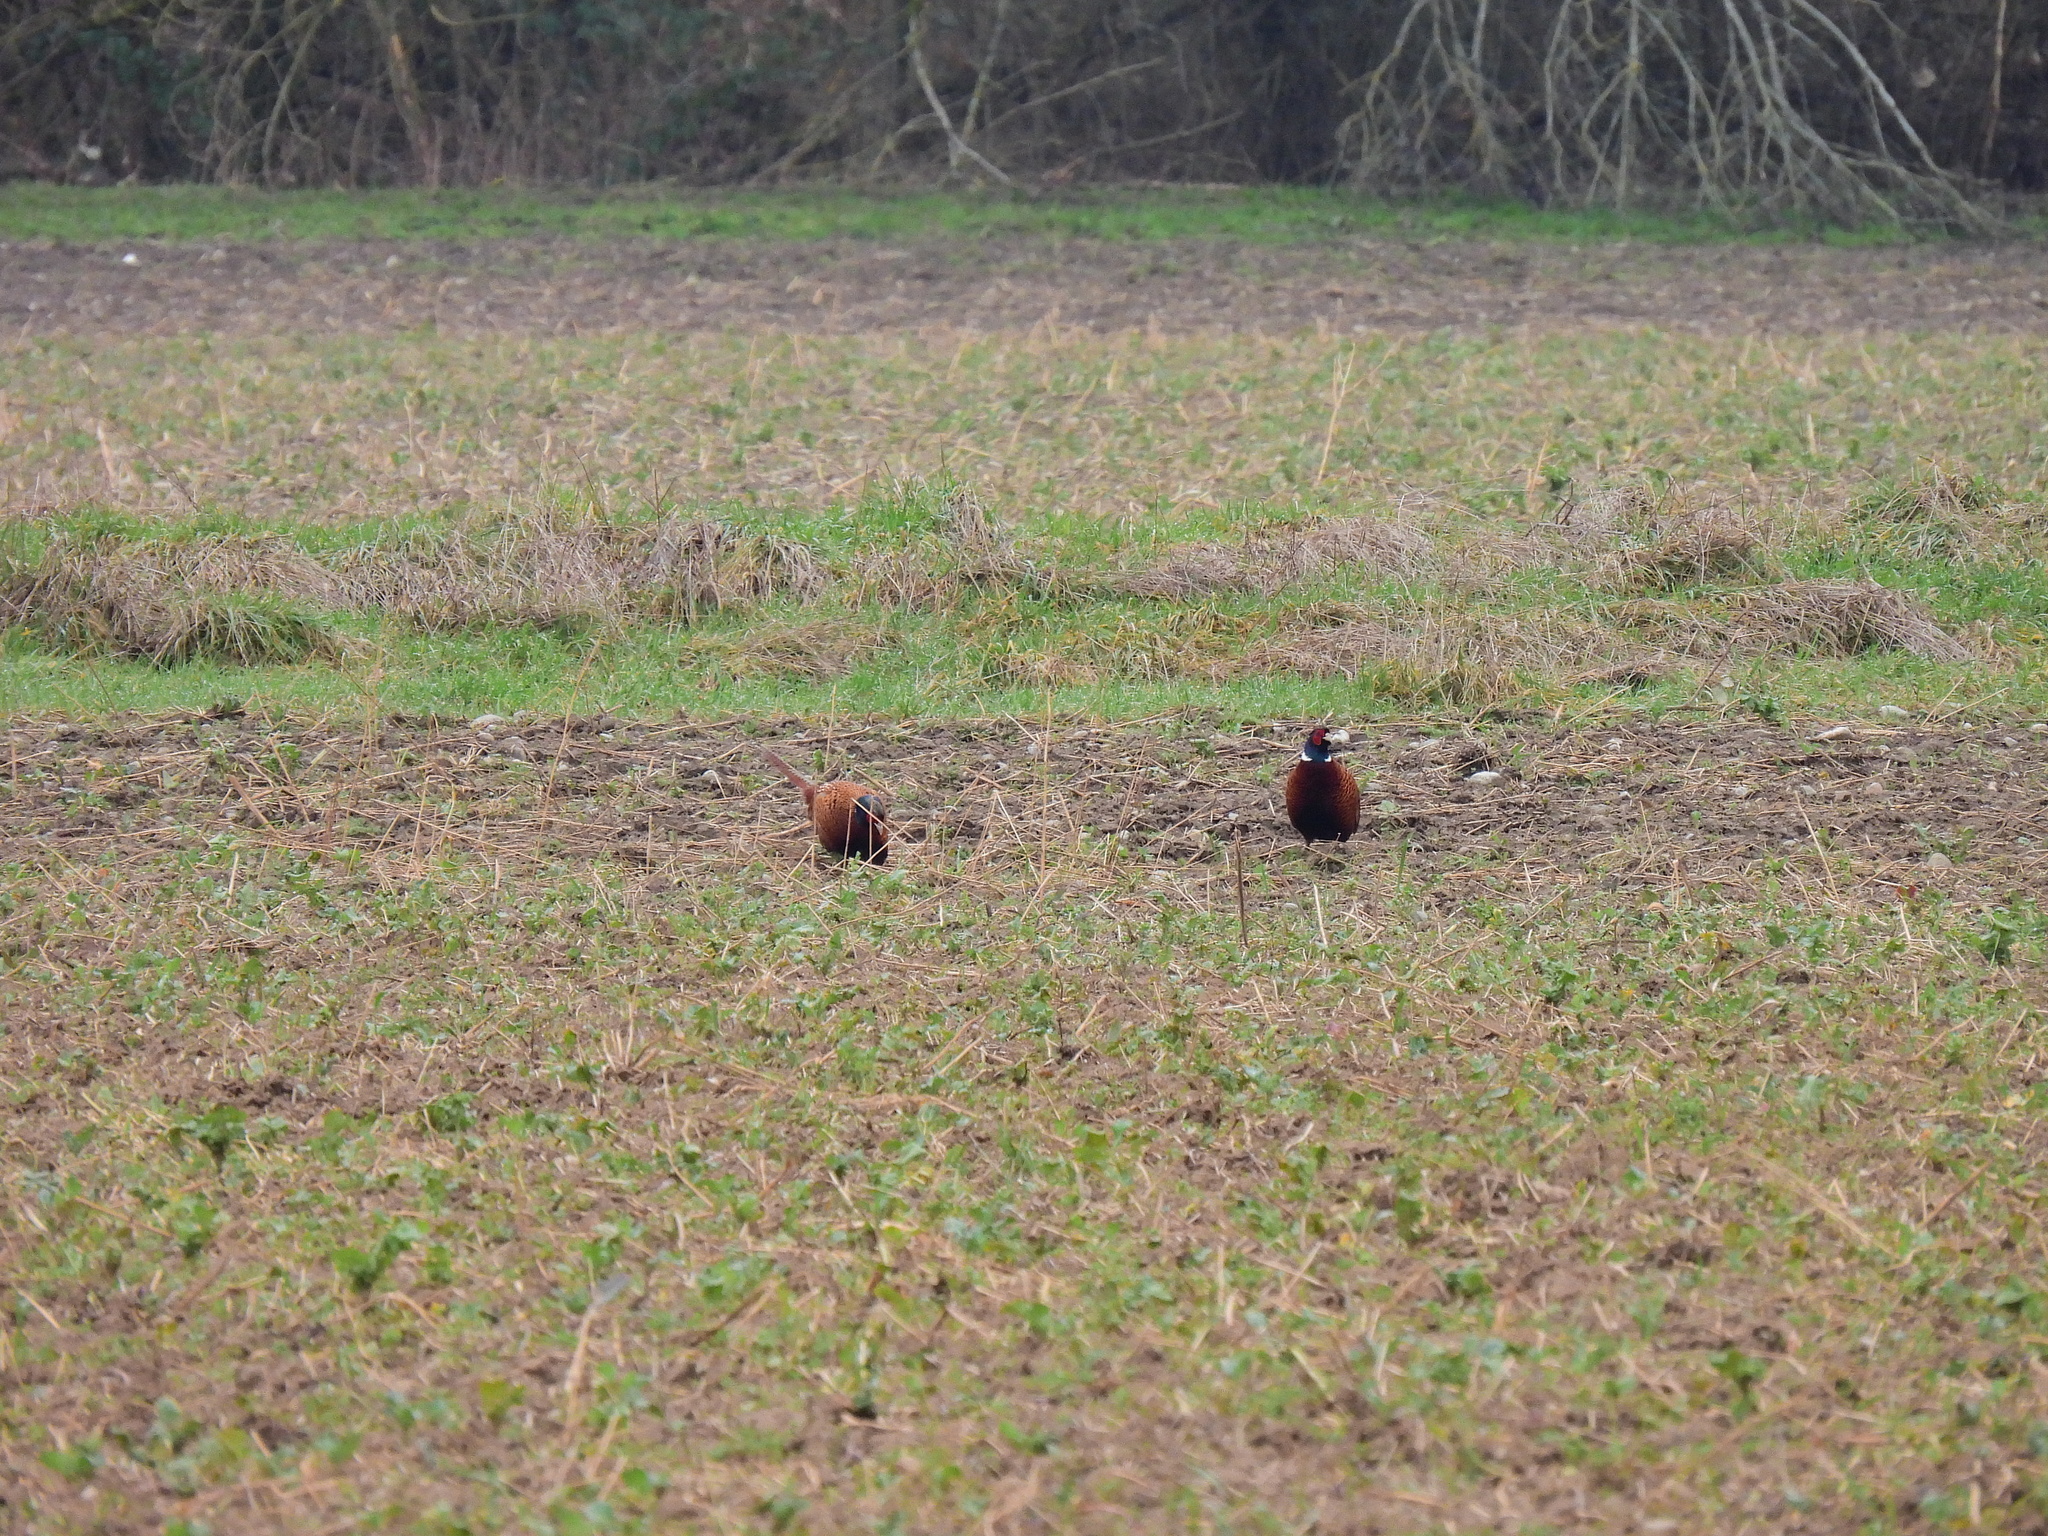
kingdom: Animalia
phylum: Chordata
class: Aves
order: Galliformes
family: Phasianidae
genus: Phasianus
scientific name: Phasianus colchicus
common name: Common pheasant
